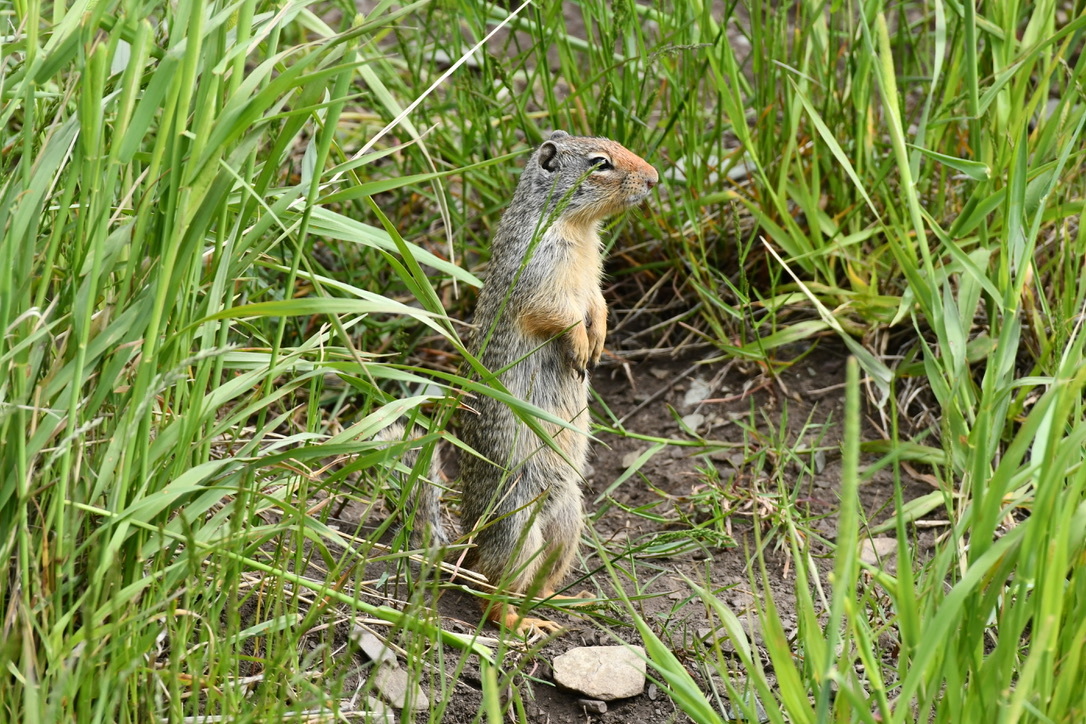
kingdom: Animalia
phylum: Chordata
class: Mammalia
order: Rodentia
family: Sciuridae
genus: Urocitellus
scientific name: Urocitellus columbianus
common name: Columbian ground squirrel
